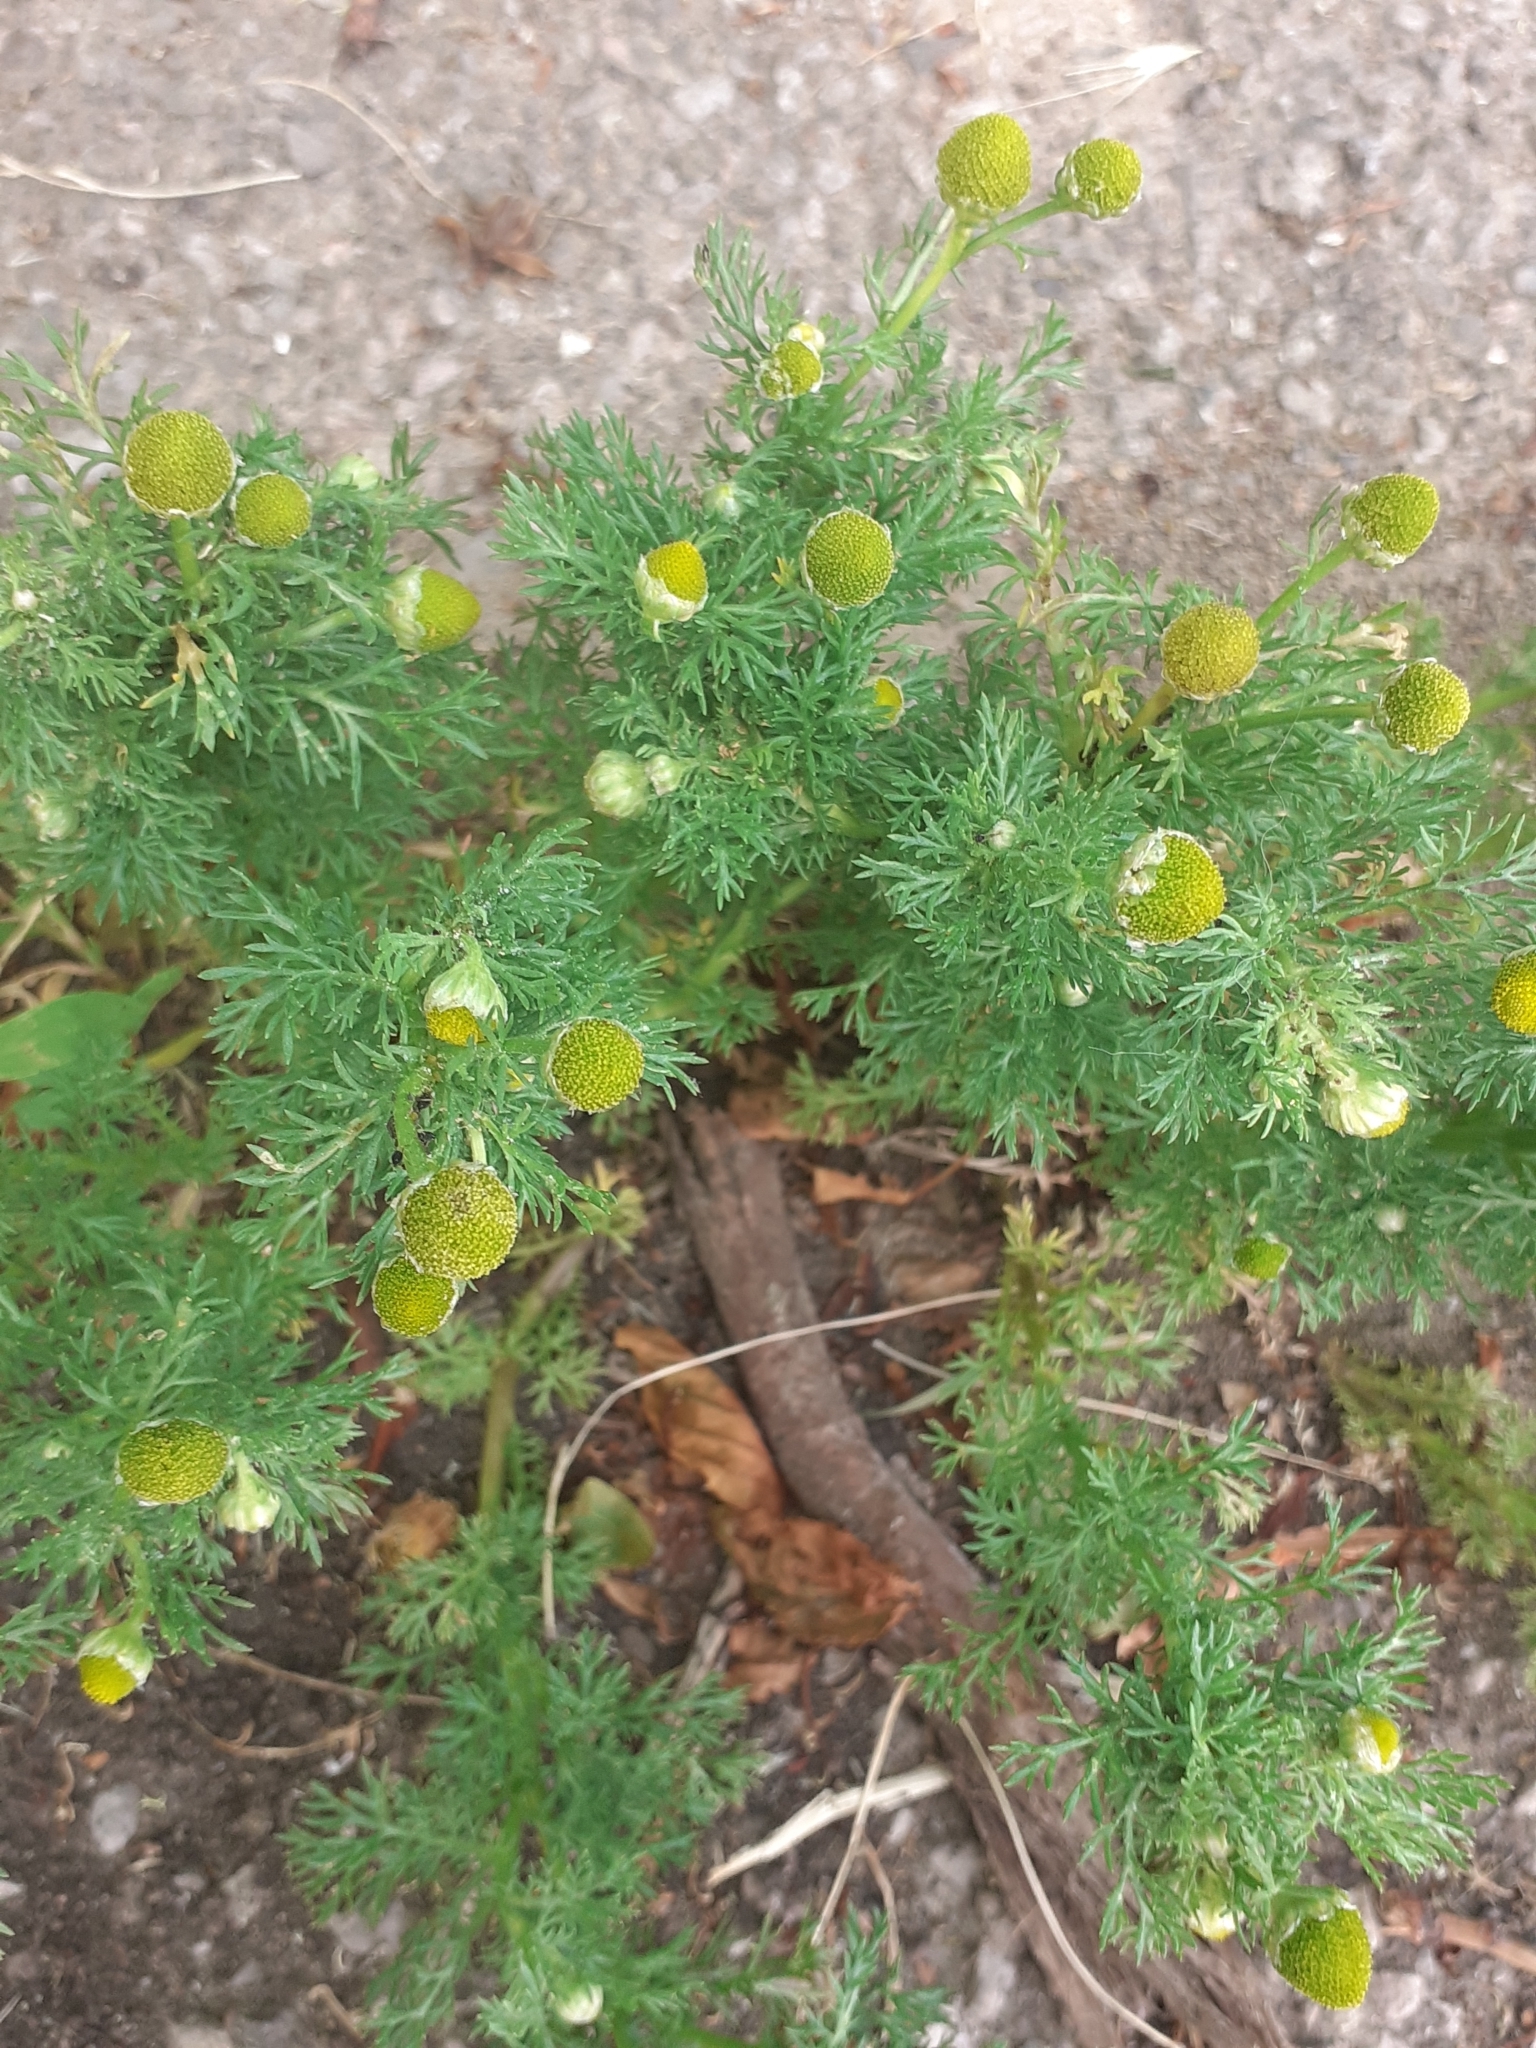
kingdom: Plantae
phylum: Tracheophyta
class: Magnoliopsida
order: Asterales
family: Asteraceae
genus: Matricaria
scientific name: Matricaria discoidea
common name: Disc mayweed
